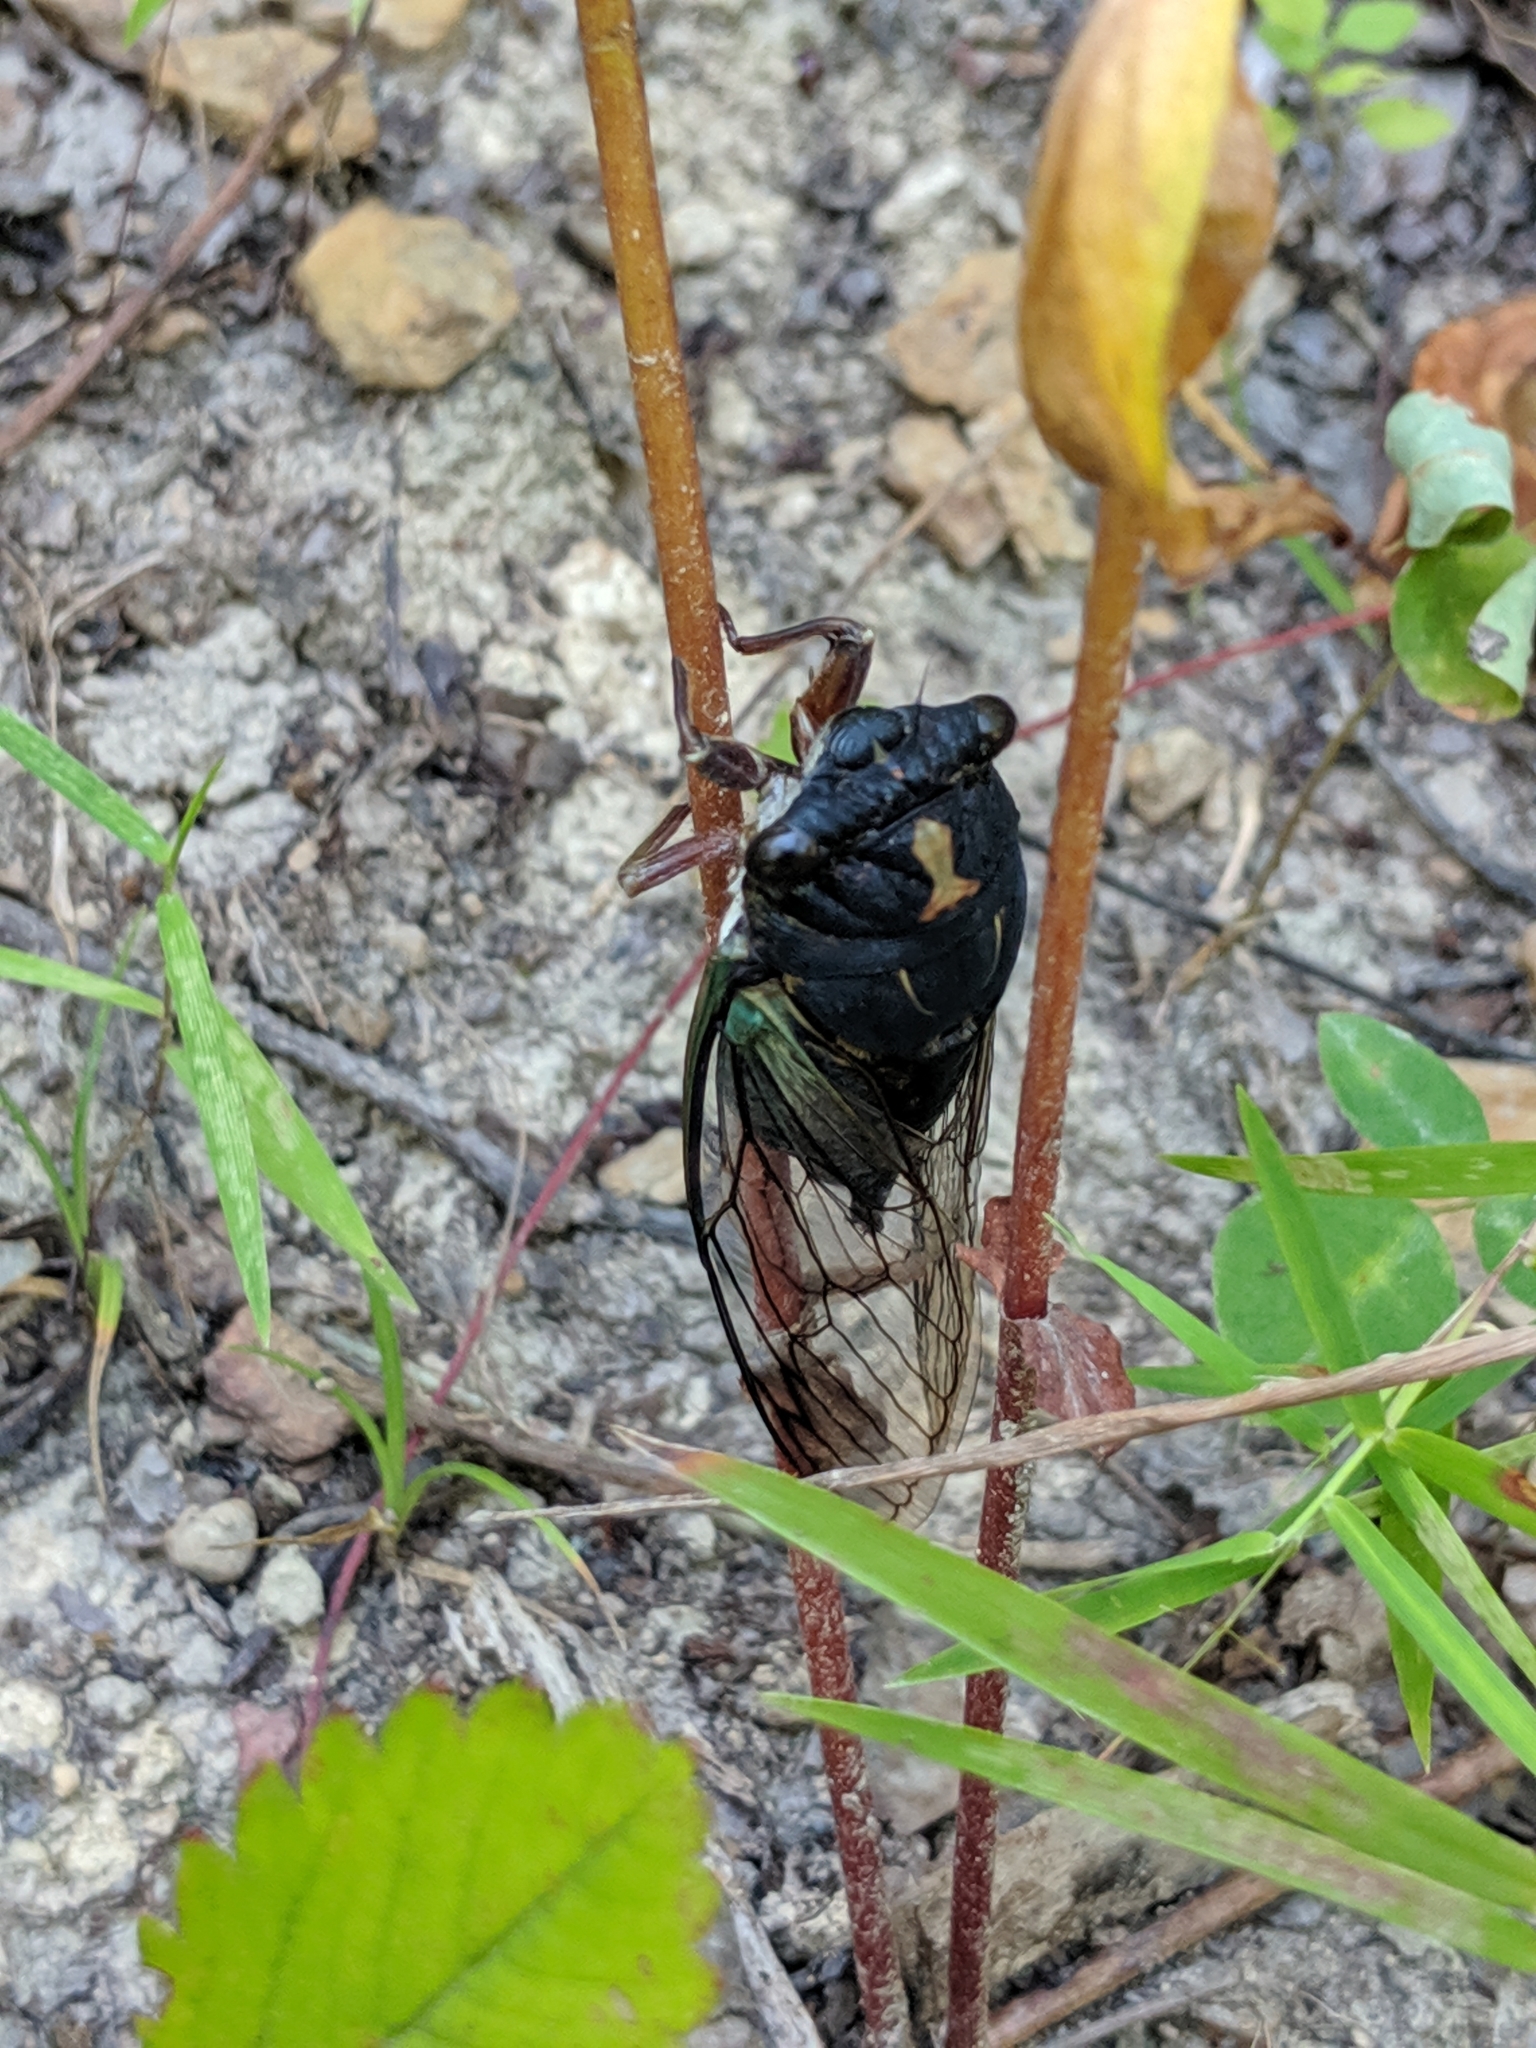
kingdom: Animalia
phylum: Arthropoda
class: Insecta
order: Hemiptera
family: Cicadidae
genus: Neotibicen
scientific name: Neotibicen lyricen
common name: Lyric cicada
